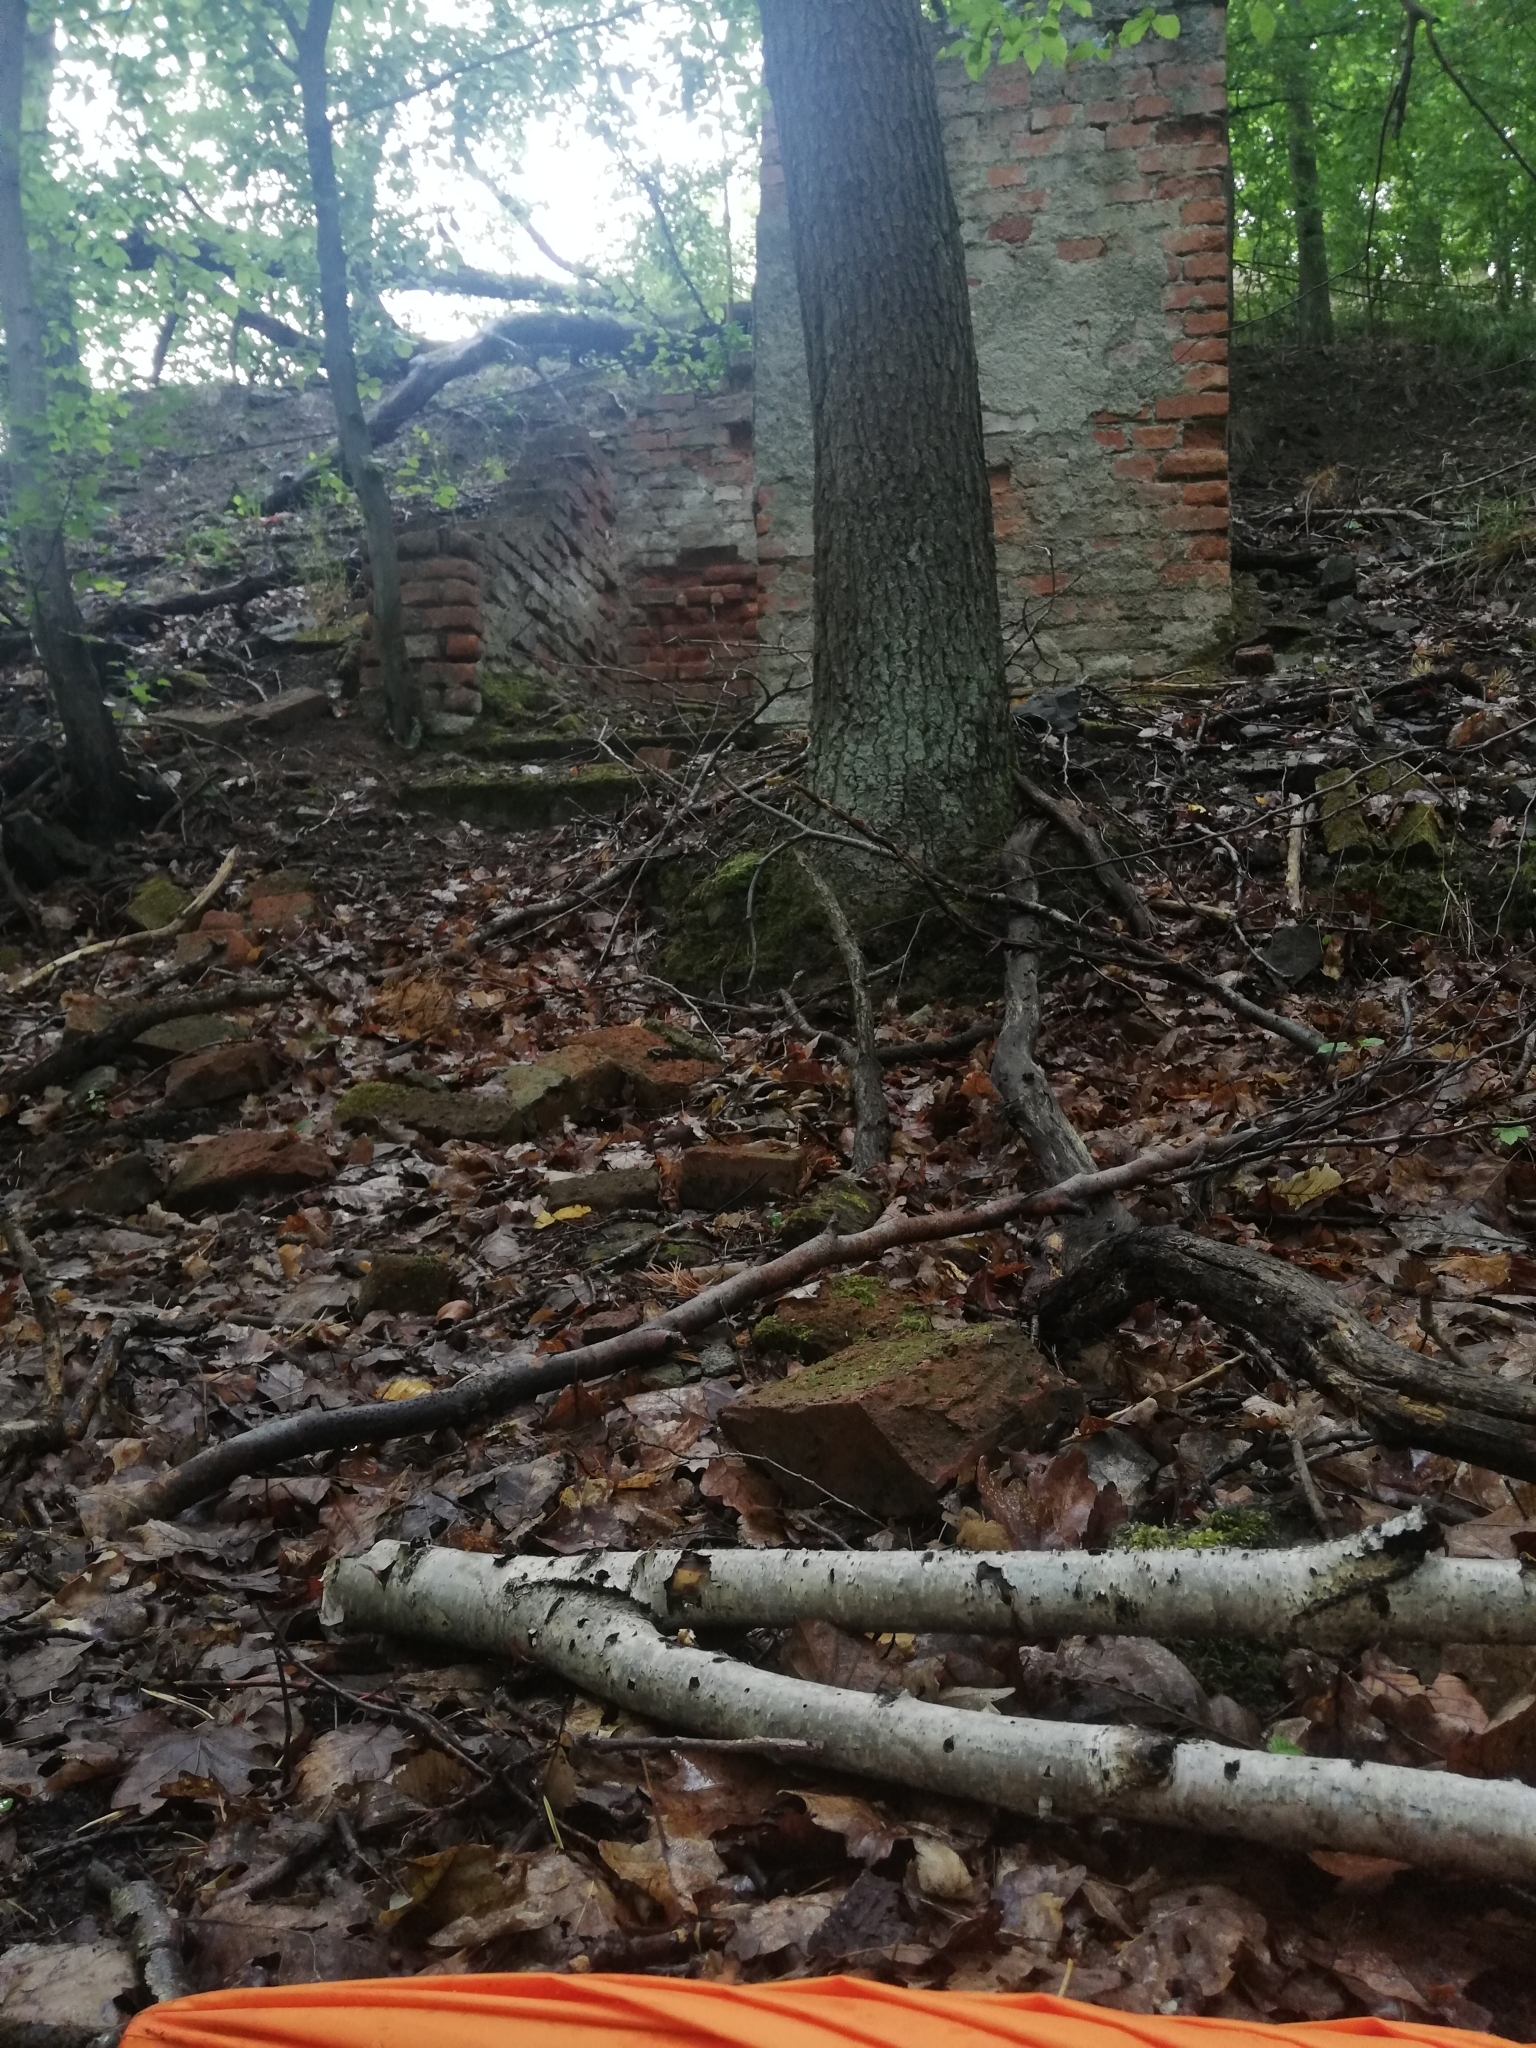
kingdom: Animalia
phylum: Chordata
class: Amphibia
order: Anura
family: Bufonidae
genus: Bufo
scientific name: Bufo bufo
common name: Common toad
